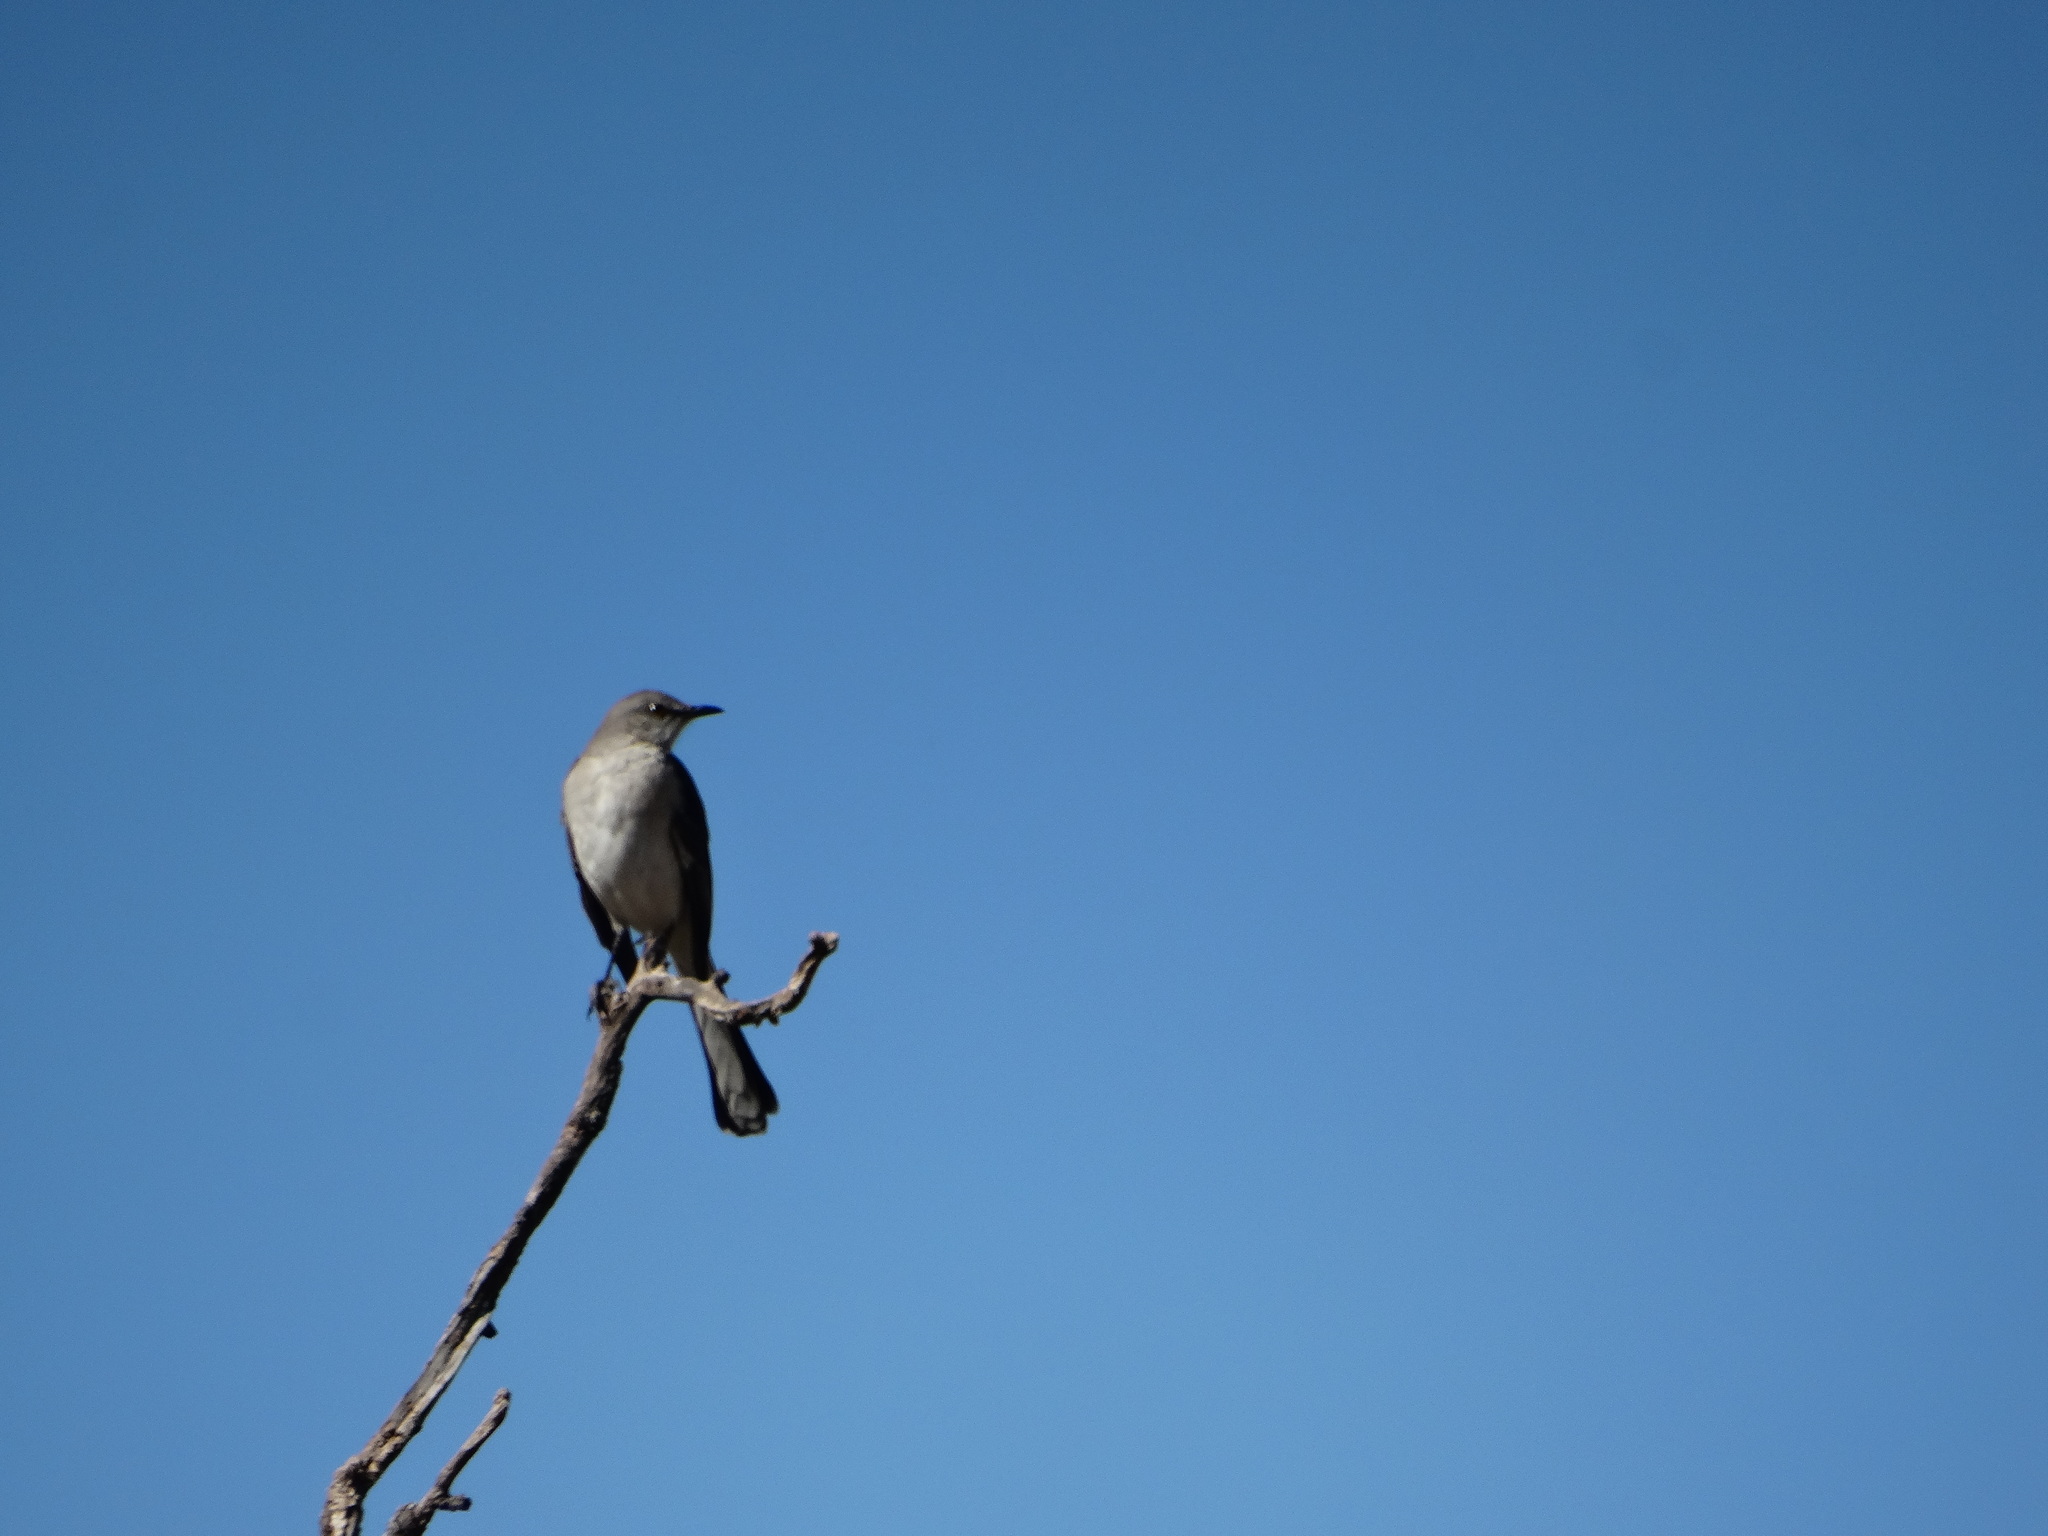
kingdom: Animalia
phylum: Chordata
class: Aves
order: Passeriformes
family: Mimidae
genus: Mimus
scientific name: Mimus polyglottos
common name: Northern mockingbird
